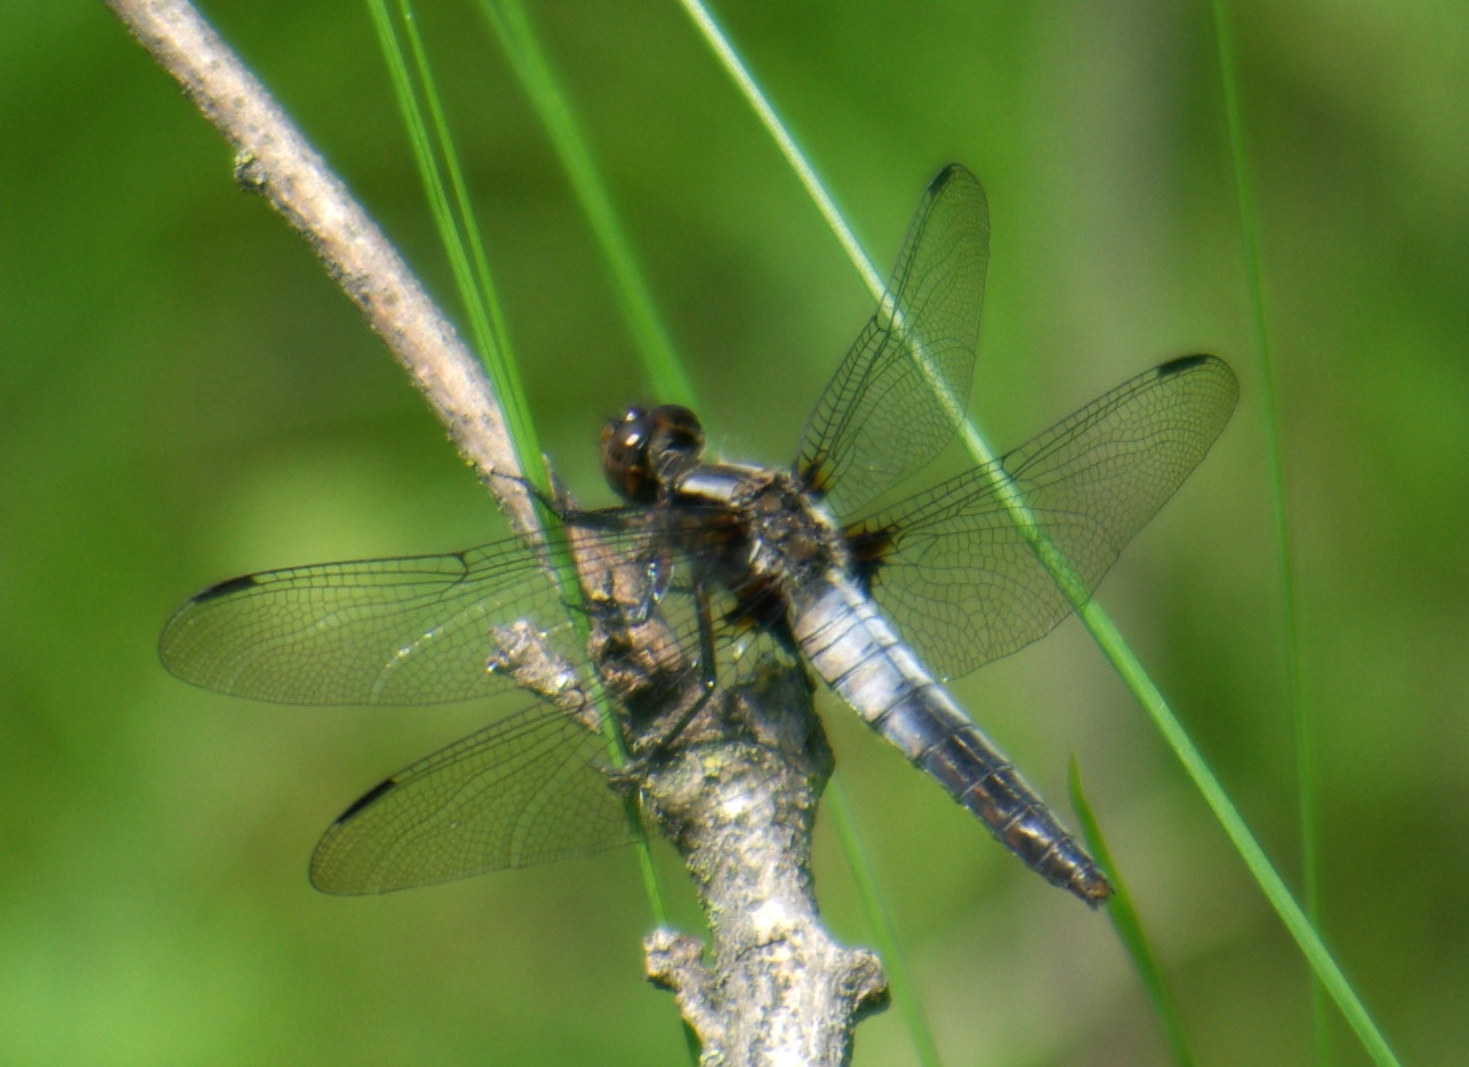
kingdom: Animalia
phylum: Arthropoda
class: Insecta
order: Odonata
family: Libellulidae
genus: Ladona
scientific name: Ladona julia
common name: Chalk-fronted corporal
